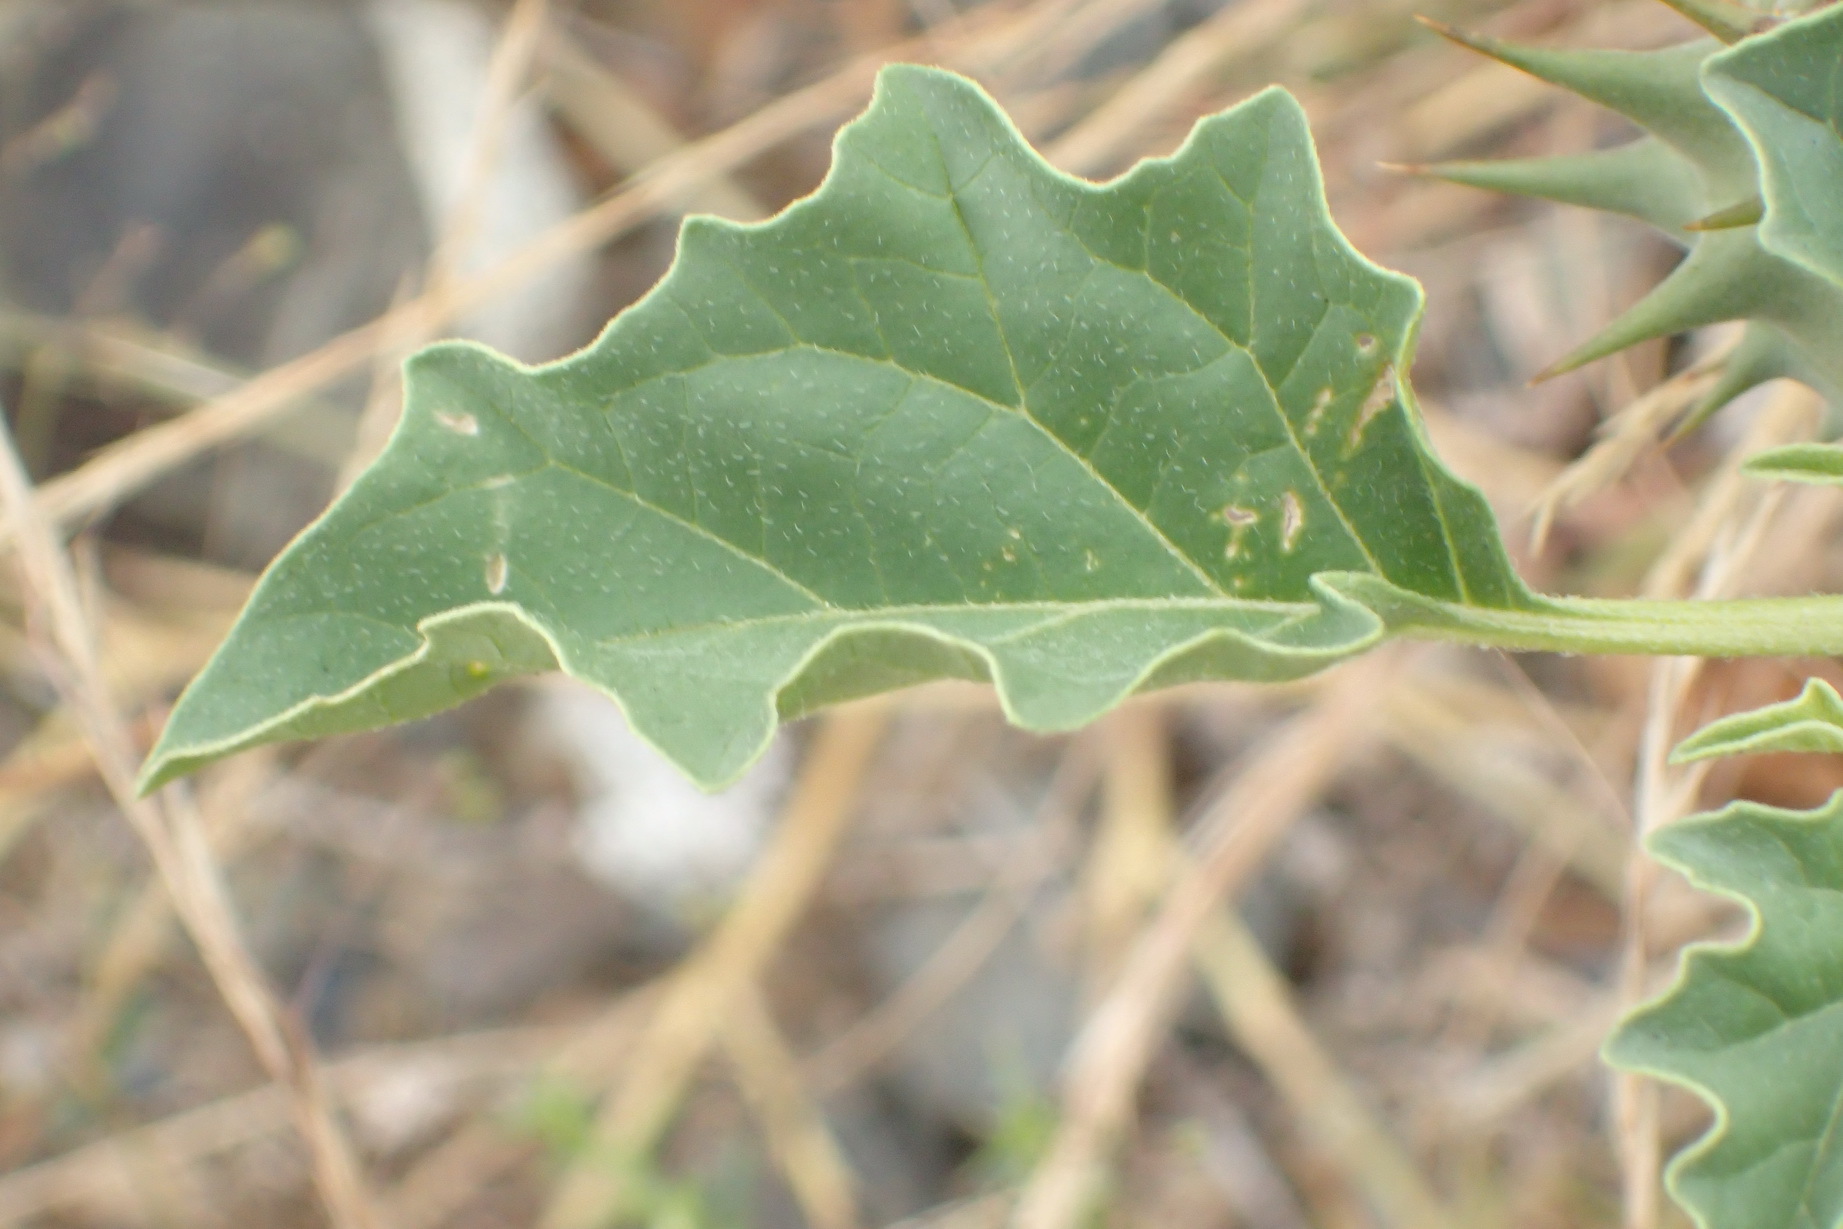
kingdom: Plantae
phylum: Tracheophyta
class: Magnoliopsida
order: Solanales
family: Solanaceae
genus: Datura
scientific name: Datura ferox
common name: Angel's-trumpets
